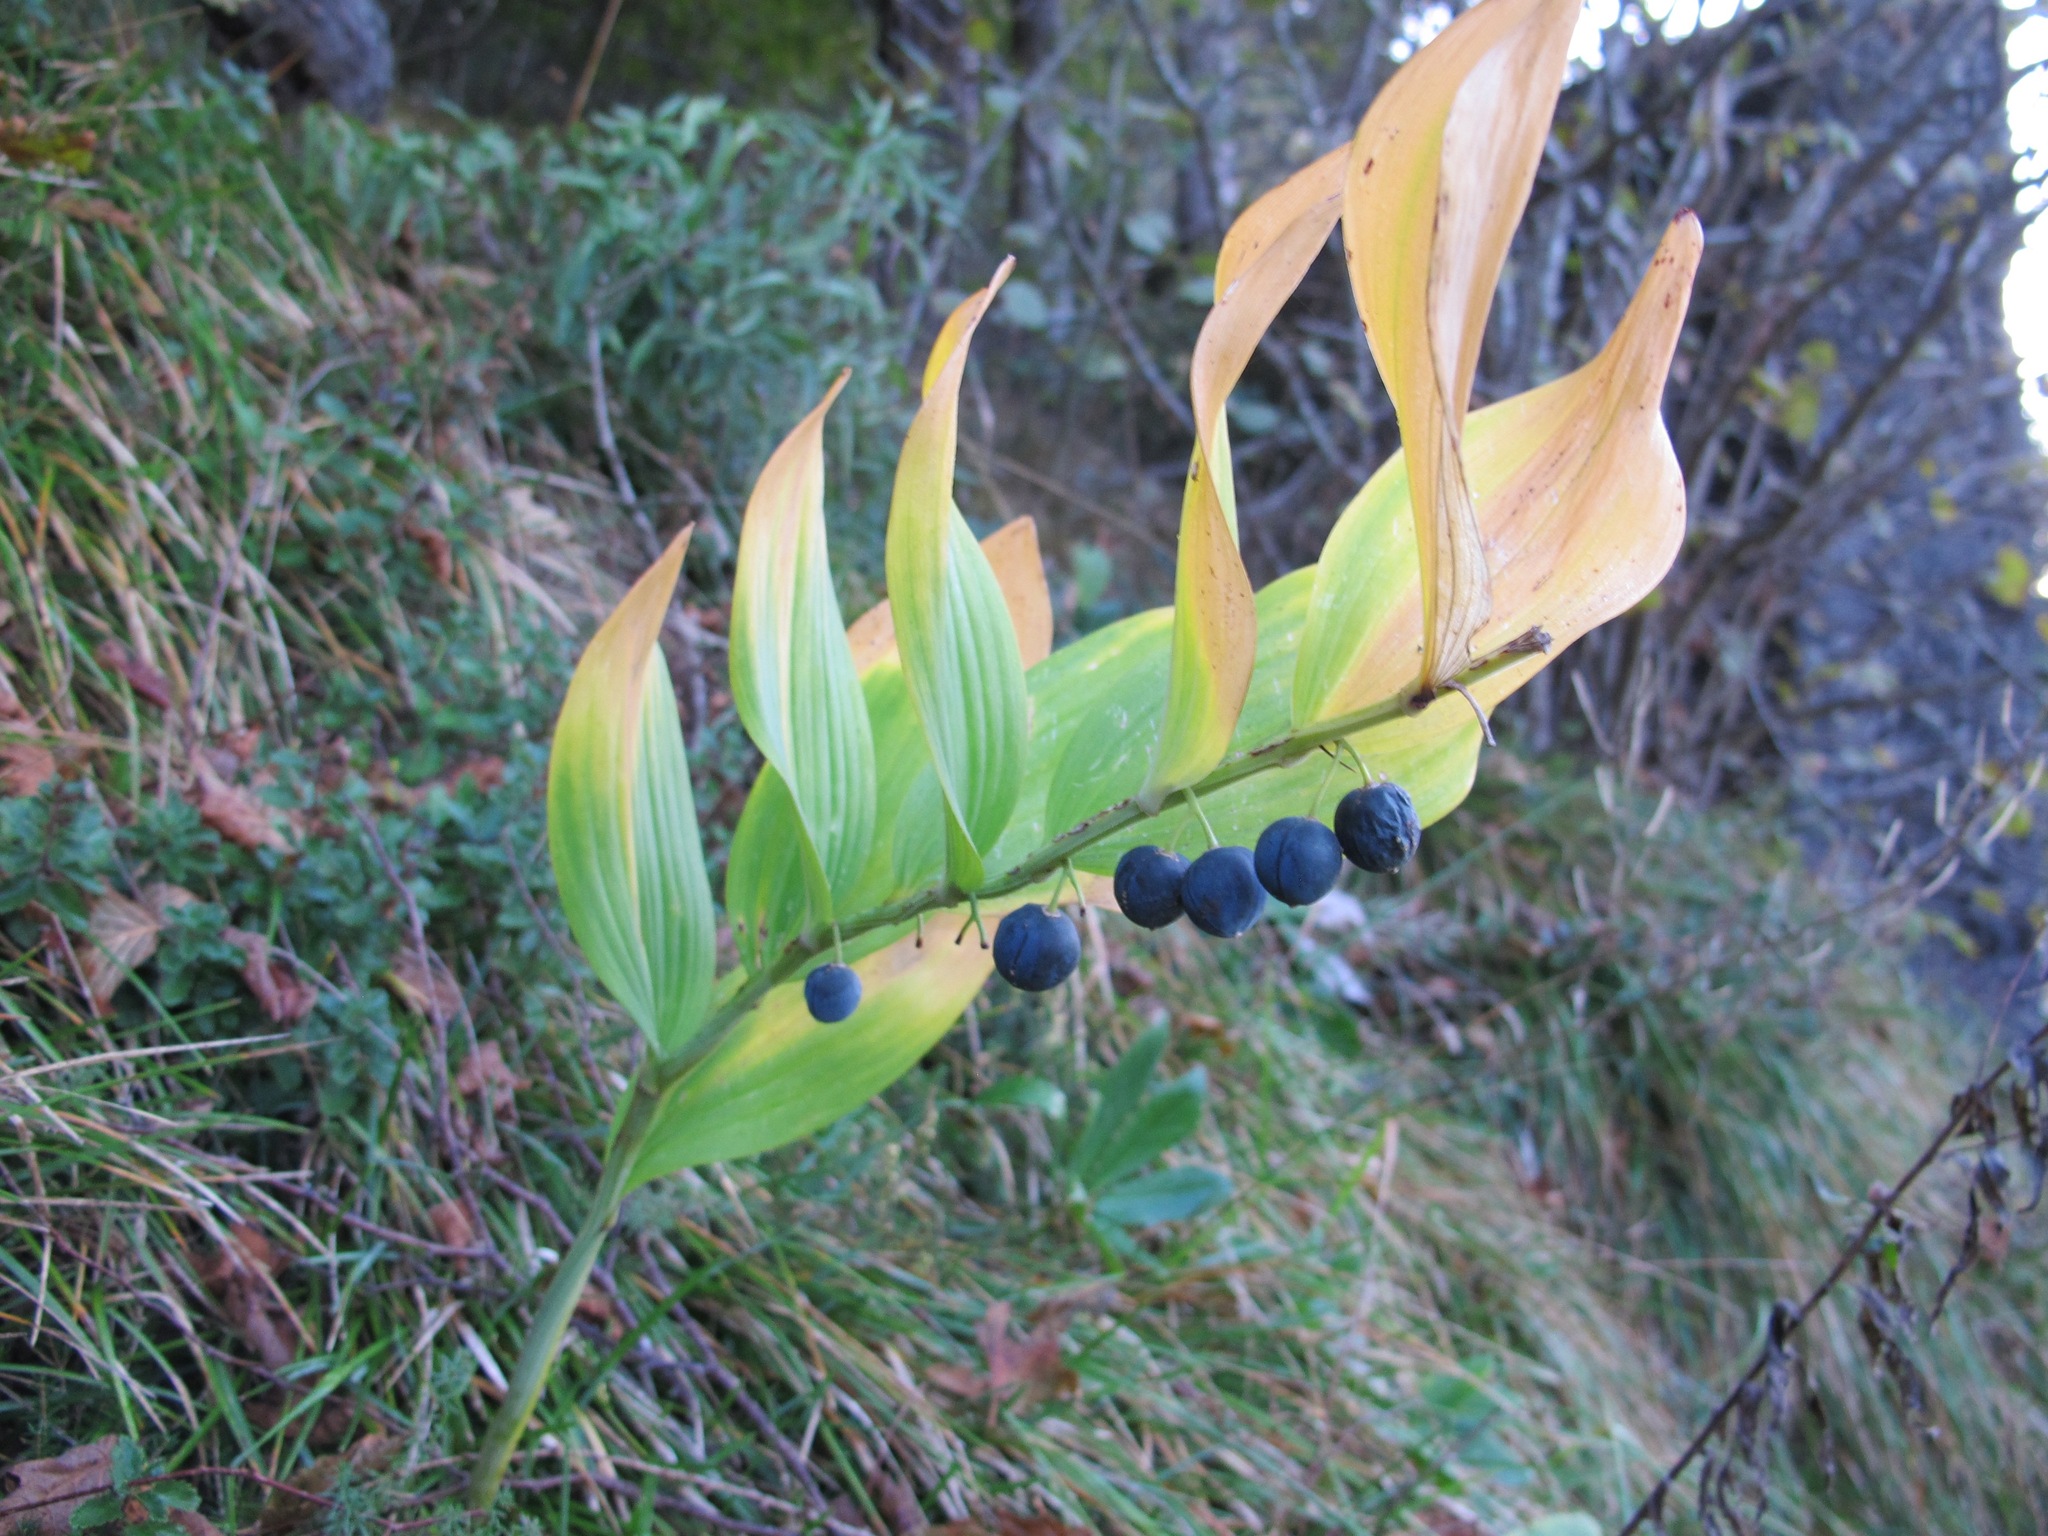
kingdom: Plantae
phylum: Tracheophyta
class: Liliopsida
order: Asparagales
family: Asparagaceae
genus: Polygonatum
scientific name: Polygonatum odoratum
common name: Angular solomon's-seal
